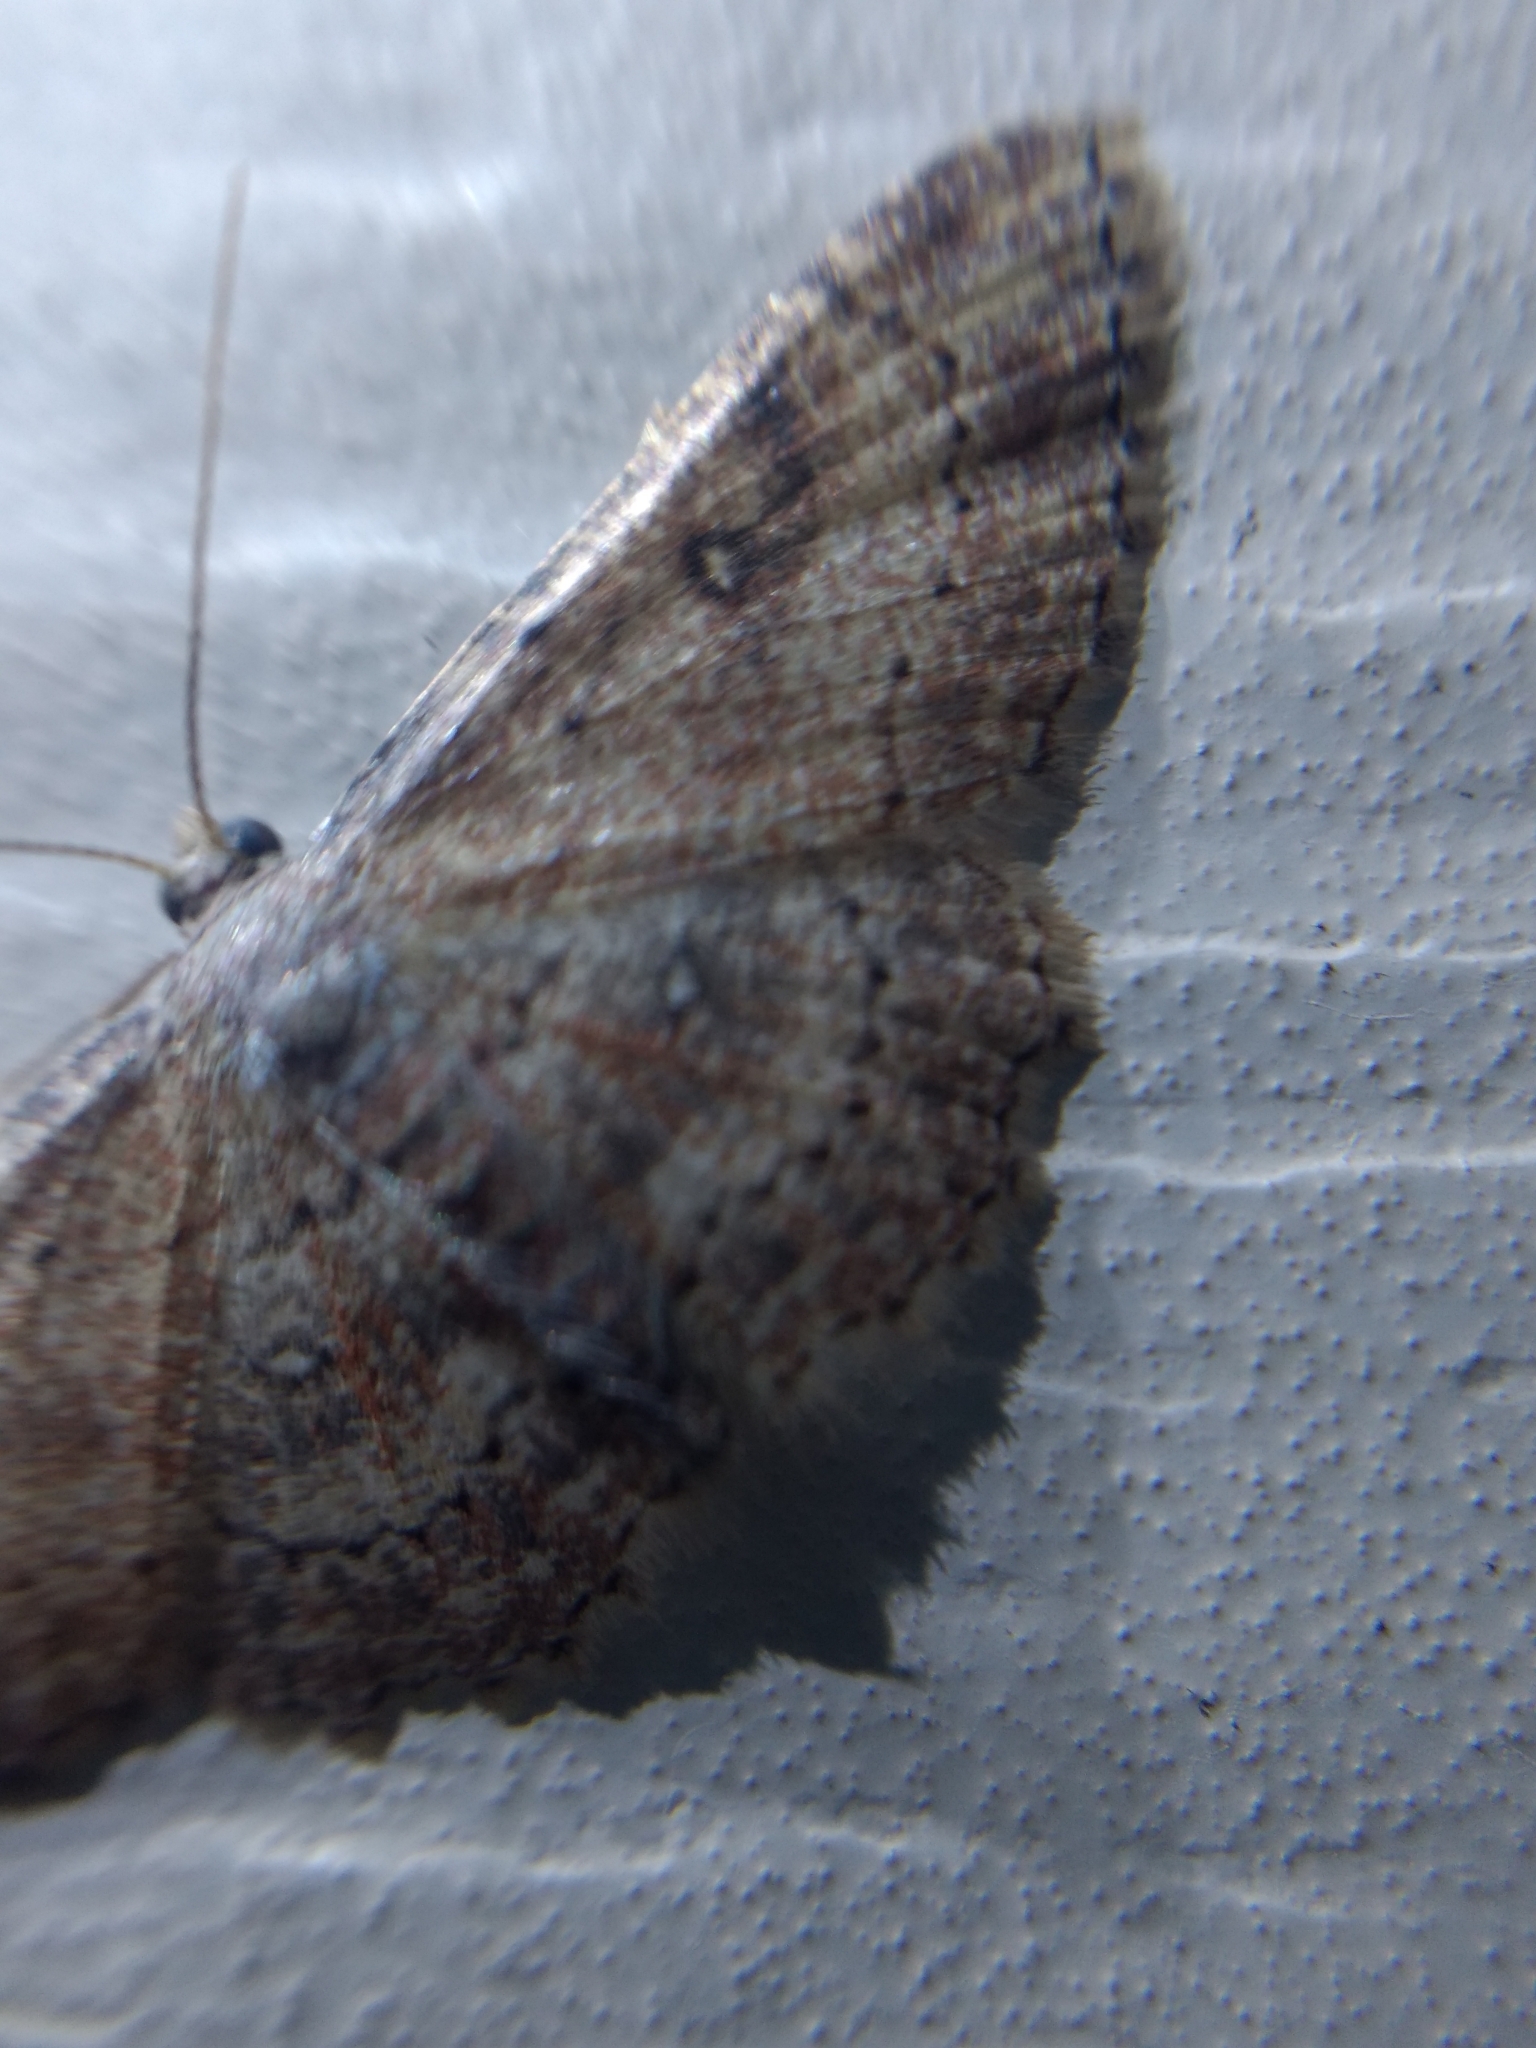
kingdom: Animalia
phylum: Arthropoda
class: Insecta
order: Lepidoptera
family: Geometridae
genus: Cyclophora
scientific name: Cyclophora nanaria
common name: Cankerworm
